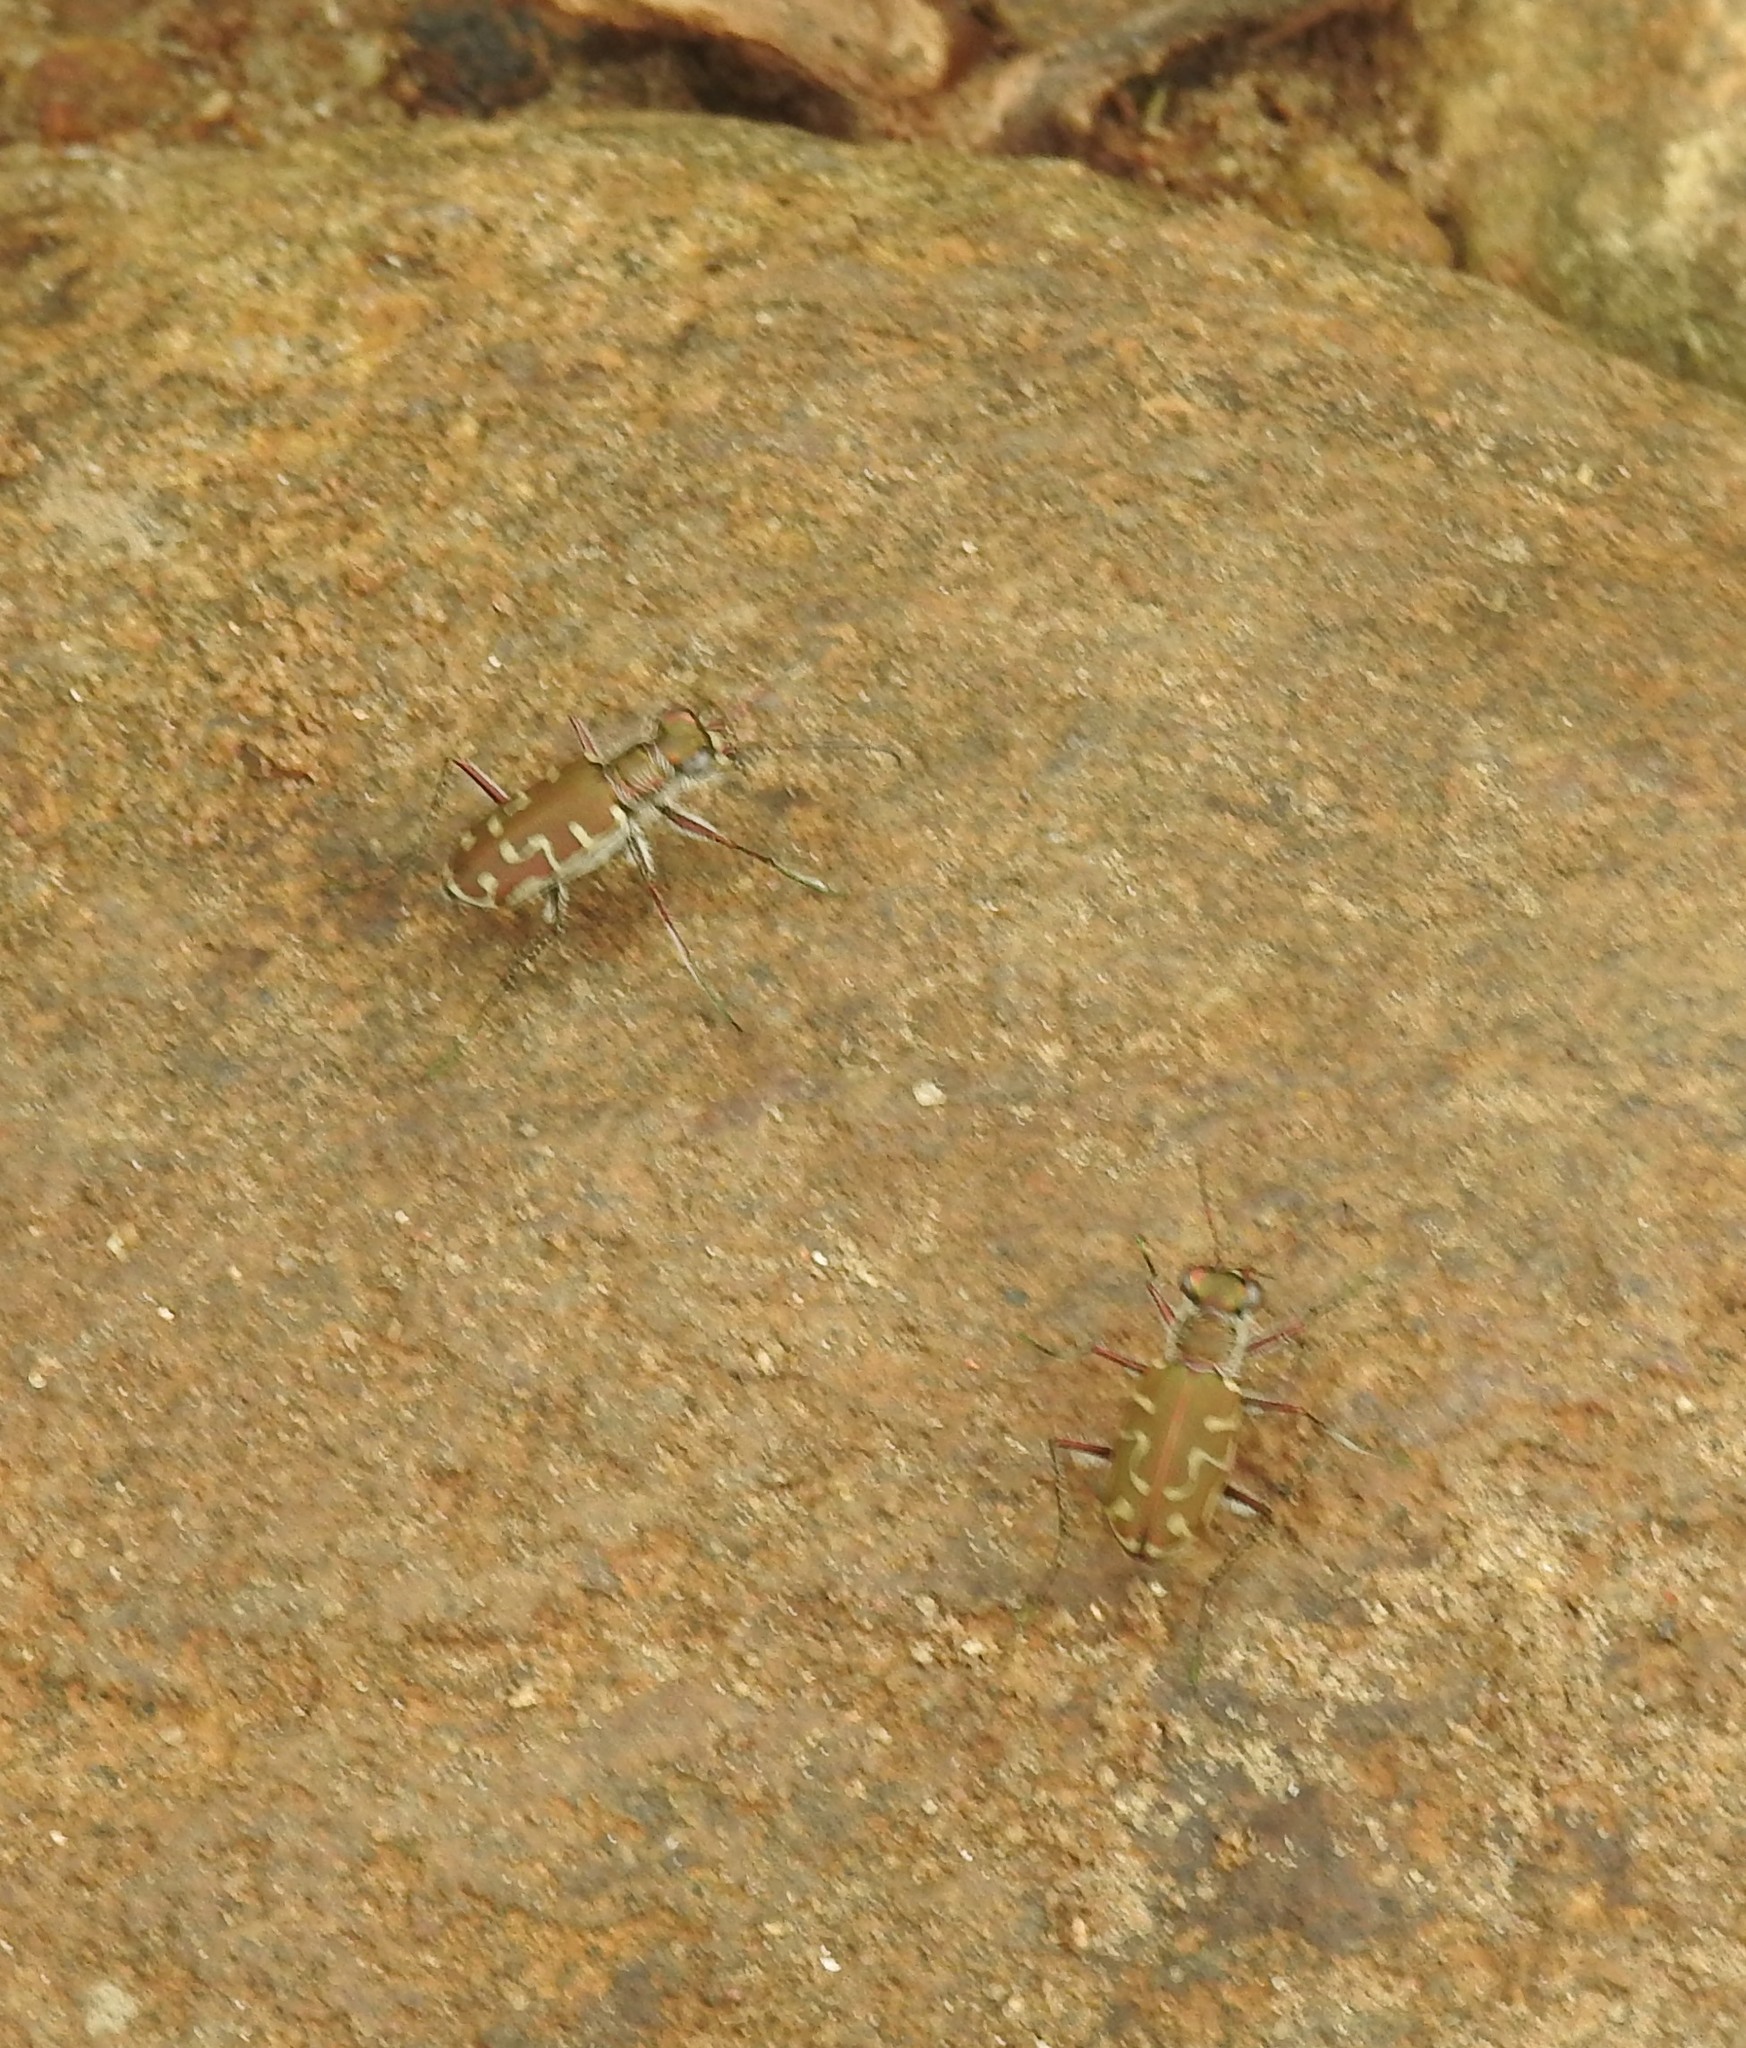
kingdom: Animalia
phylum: Arthropoda
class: Insecta
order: Coleoptera
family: Carabidae
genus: Cicindela
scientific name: Cicindela angulata
